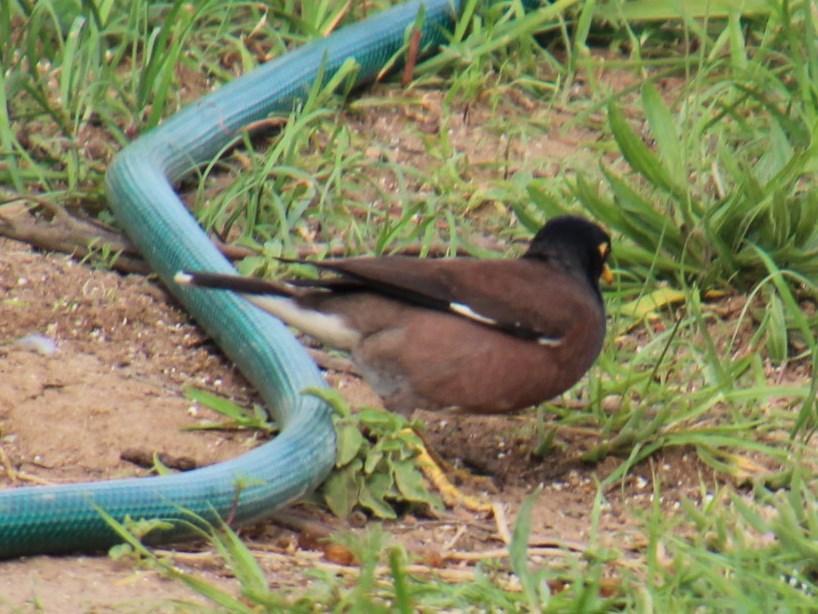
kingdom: Animalia
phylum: Chordata
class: Aves
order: Passeriformes
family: Sturnidae
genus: Acridotheres
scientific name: Acridotheres tristis
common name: Common myna
